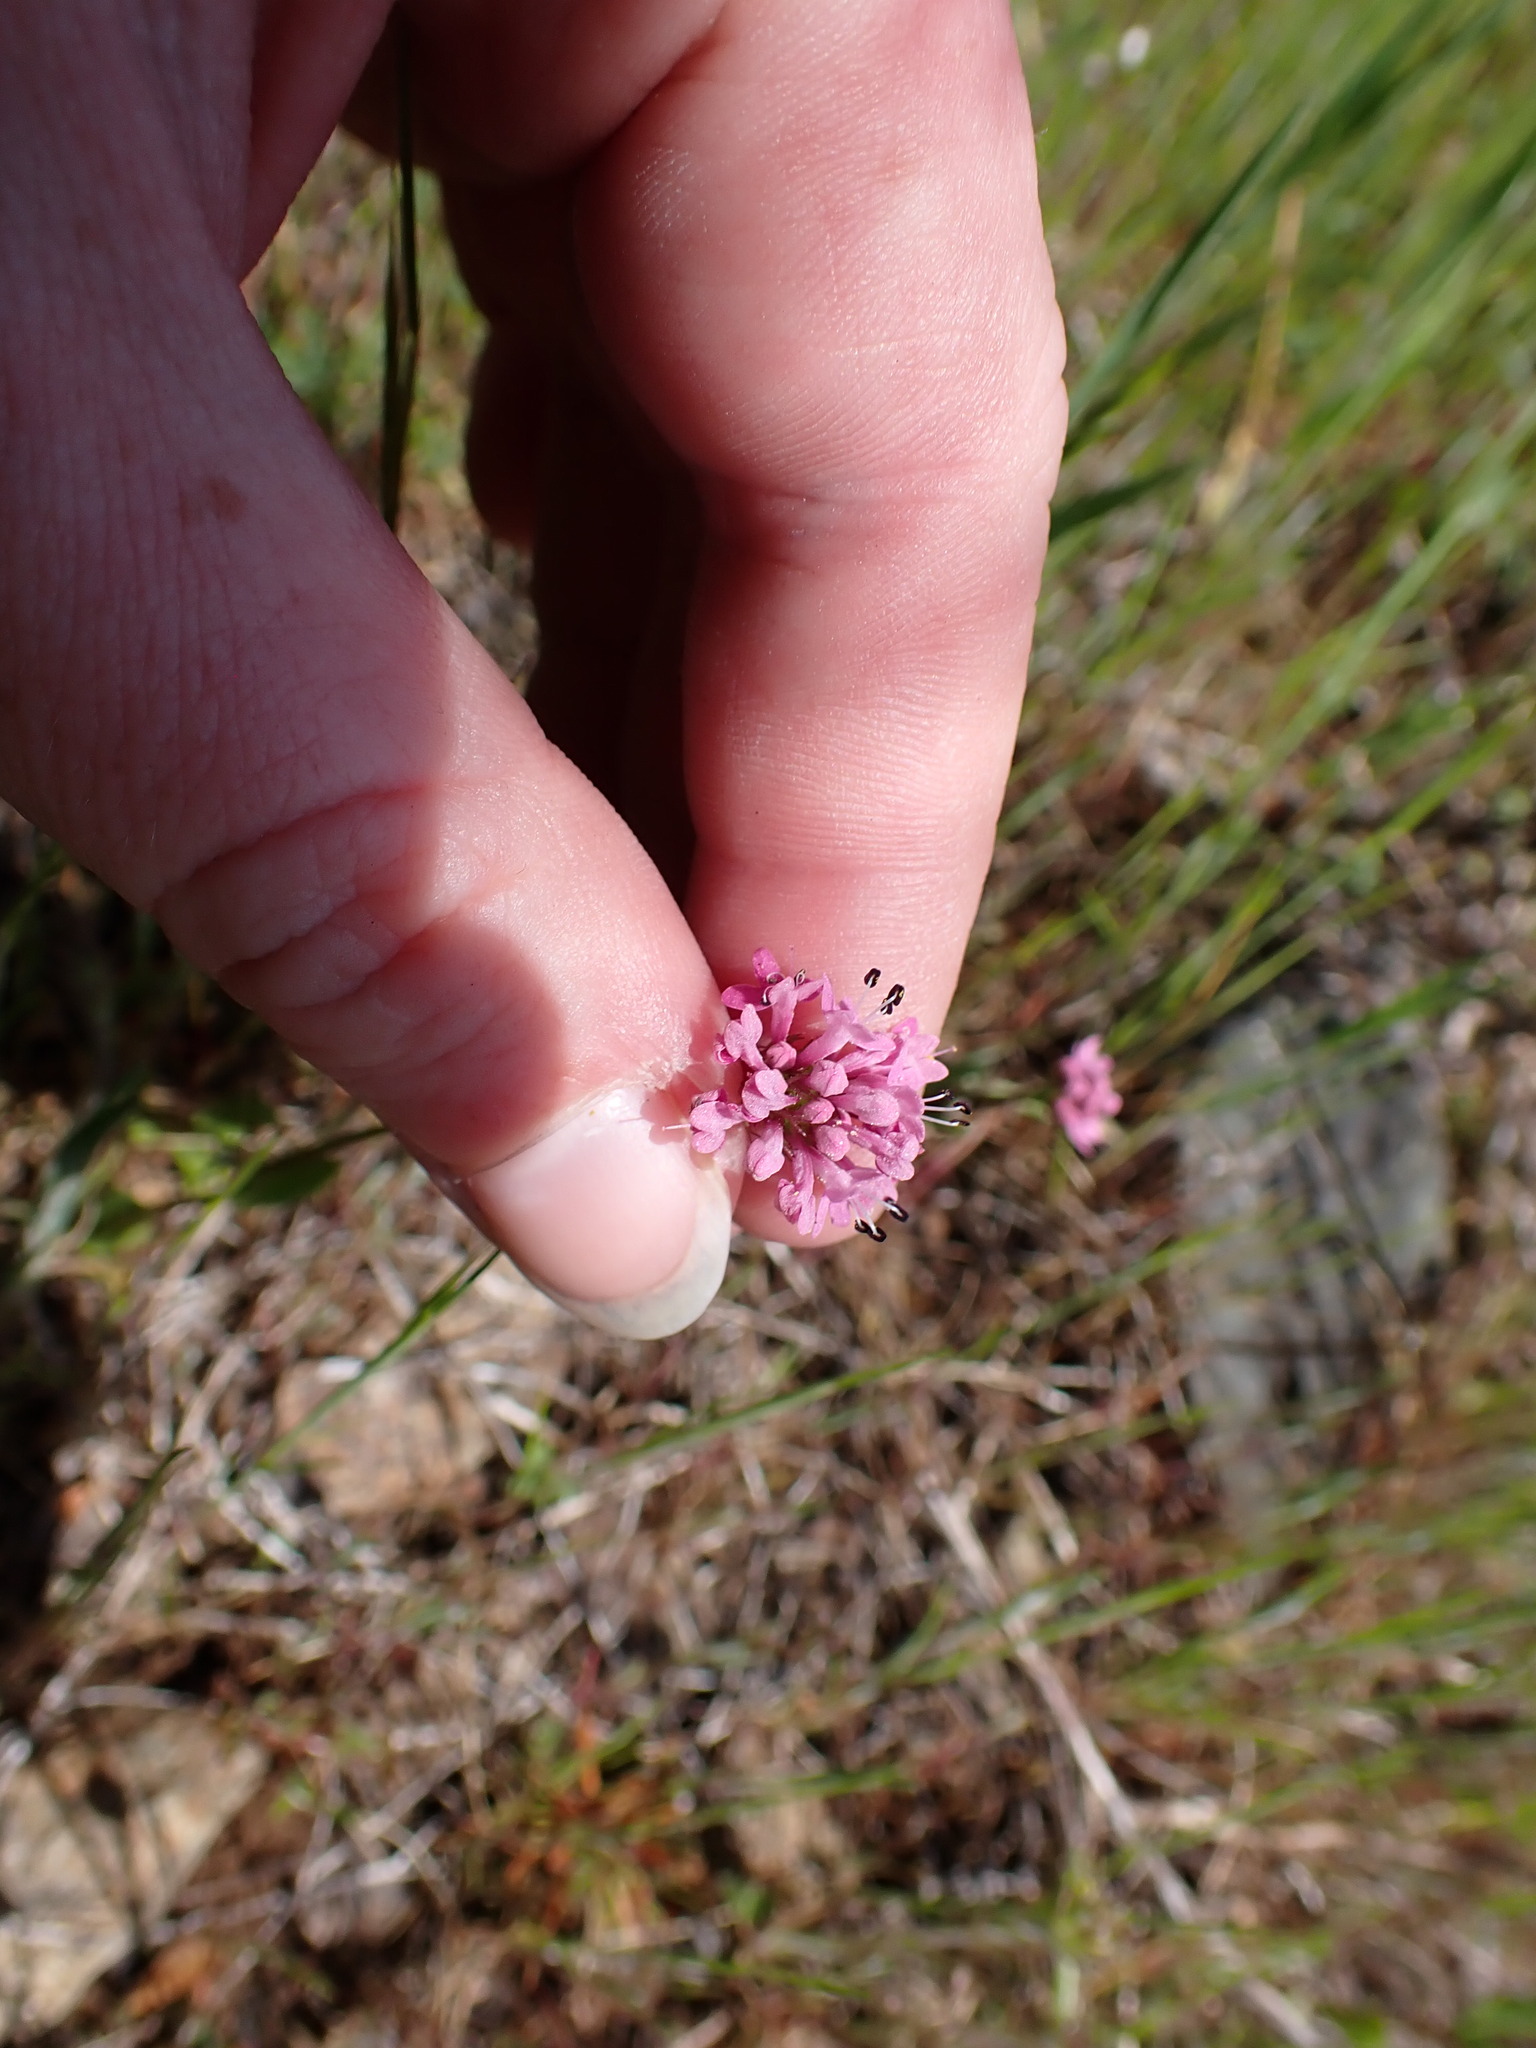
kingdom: Plantae
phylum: Tracheophyta
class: Magnoliopsida
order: Dipsacales
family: Caprifoliaceae
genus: Plectritis
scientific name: Plectritis congesta
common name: Pink plectritis
